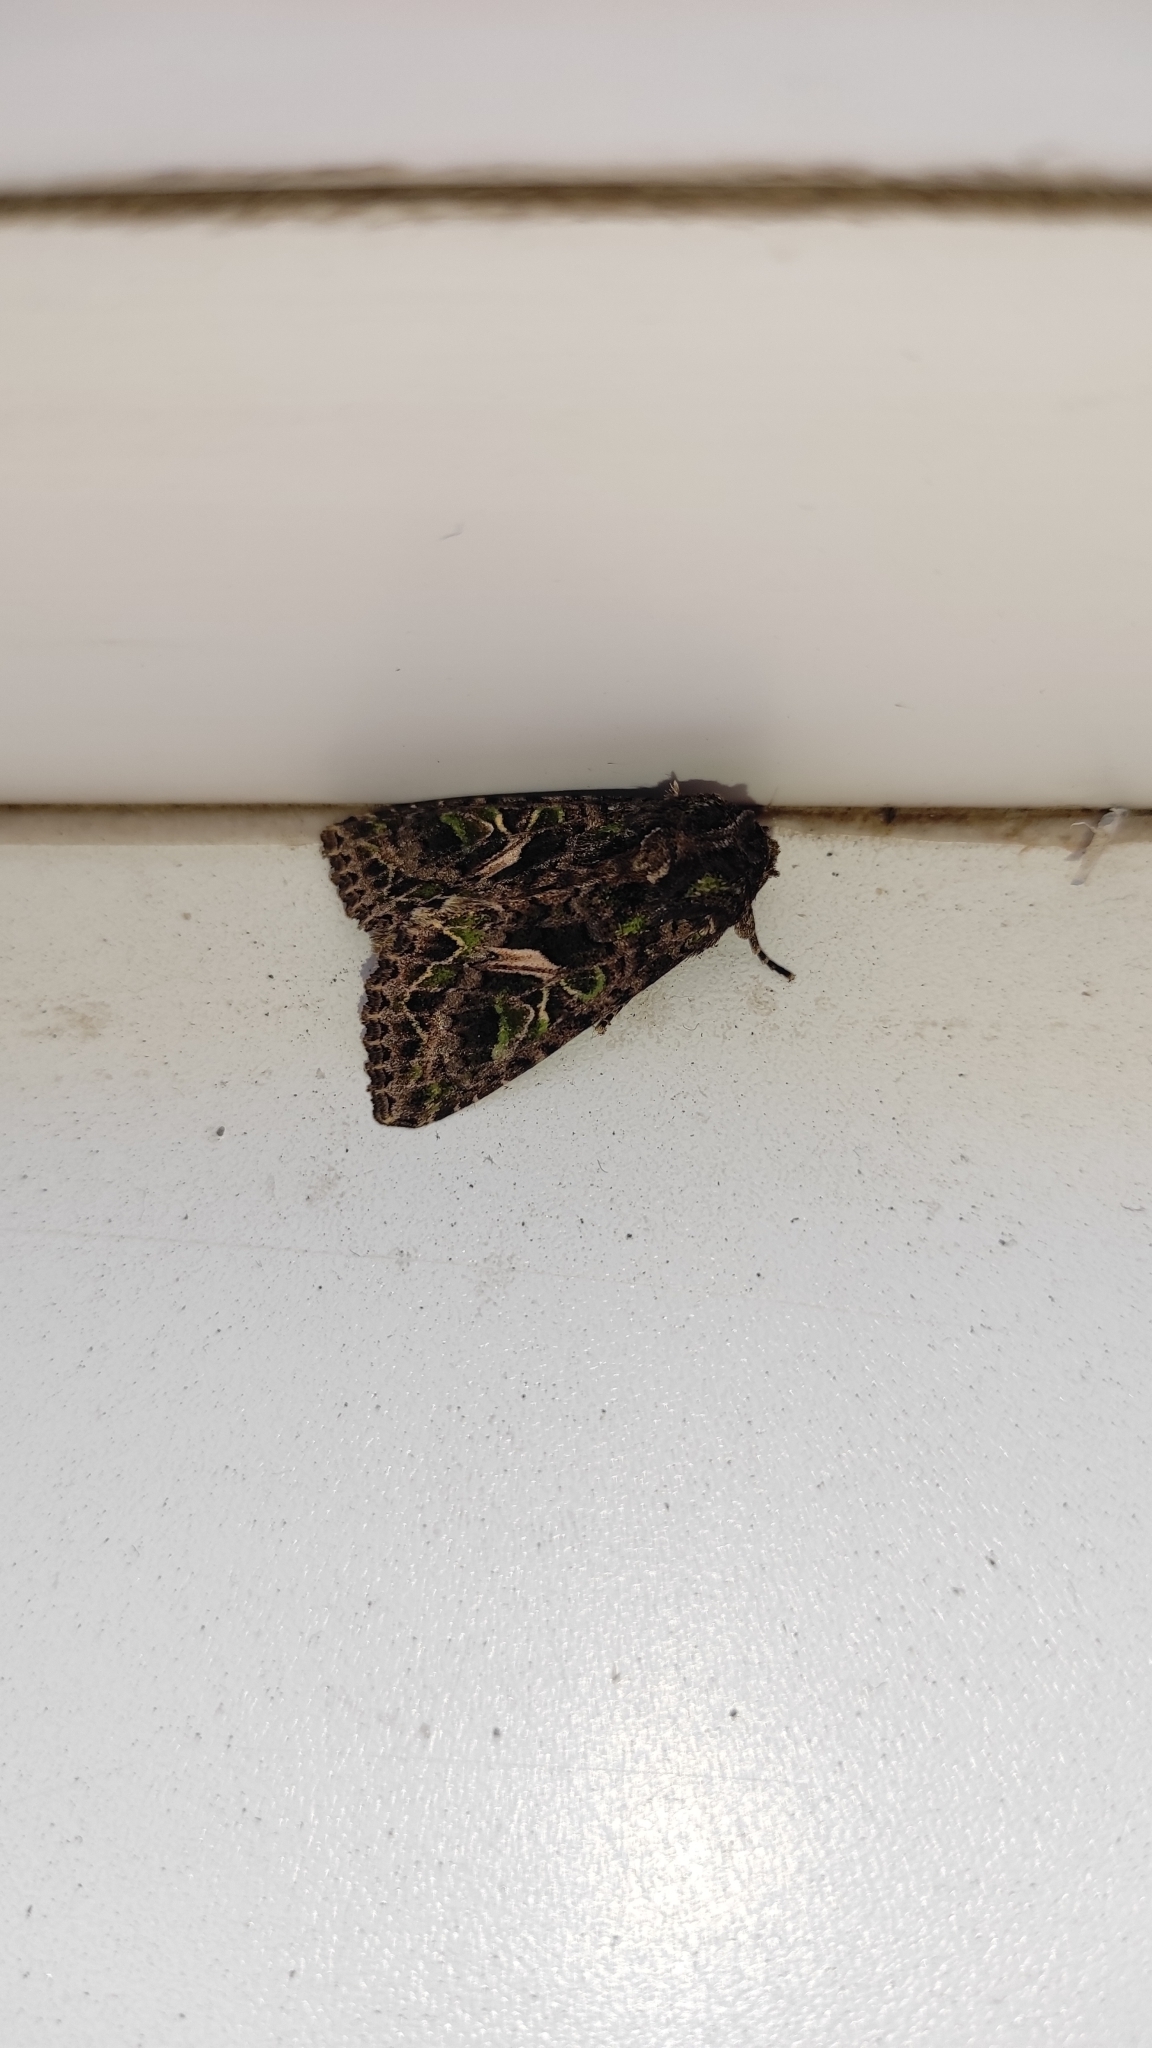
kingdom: Animalia
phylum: Arthropoda
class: Insecta
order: Lepidoptera
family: Noctuidae
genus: Trachea
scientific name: Trachea atriplicis
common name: Orache moth
